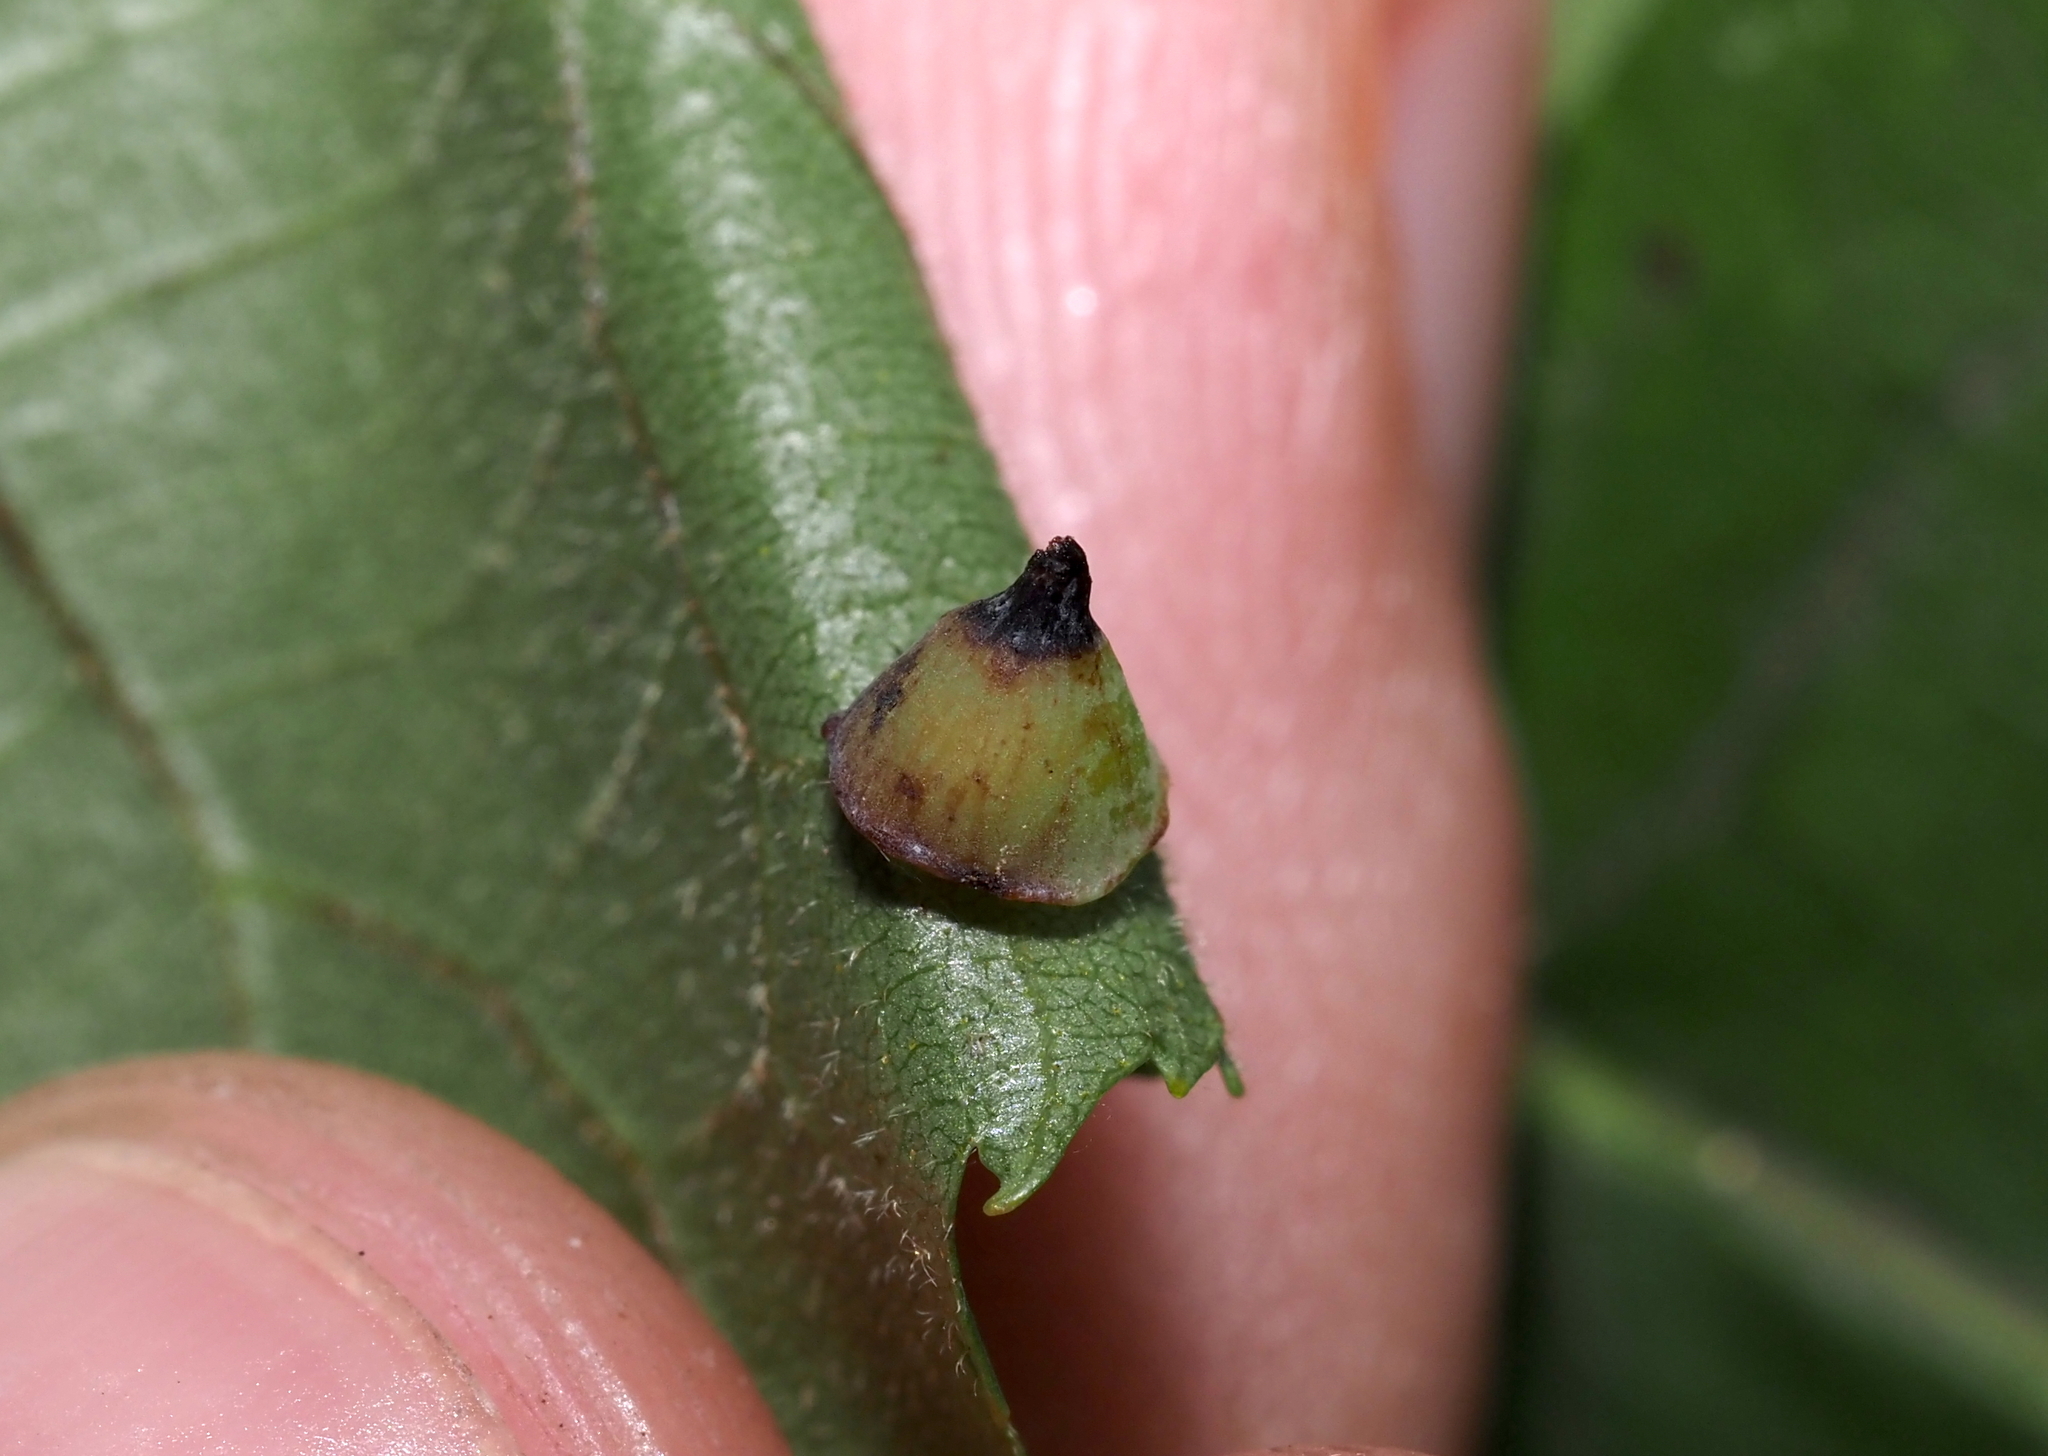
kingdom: Animalia
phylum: Arthropoda
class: Insecta
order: Diptera
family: Cecidomyiidae
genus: Caryomyia
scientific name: Caryomyia sanguinolenta
